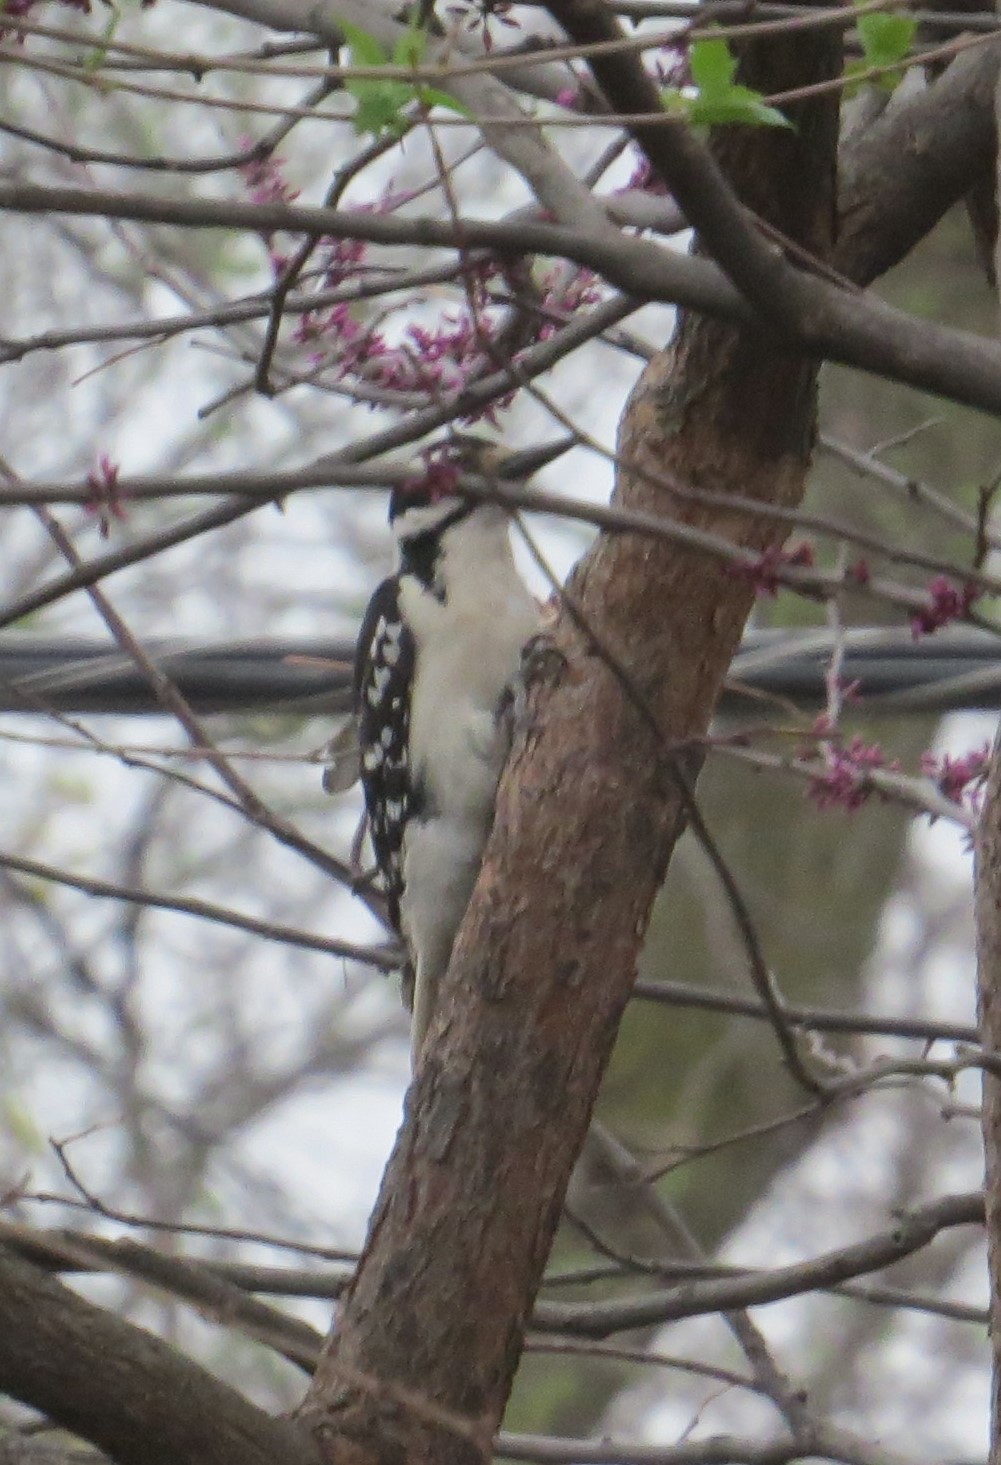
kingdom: Animalia
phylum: Chordata
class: Aves
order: Piciformes
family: Picidae
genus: Leuconotopicus
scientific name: Leuconotopicus villosus
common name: Hairy woodpecker
